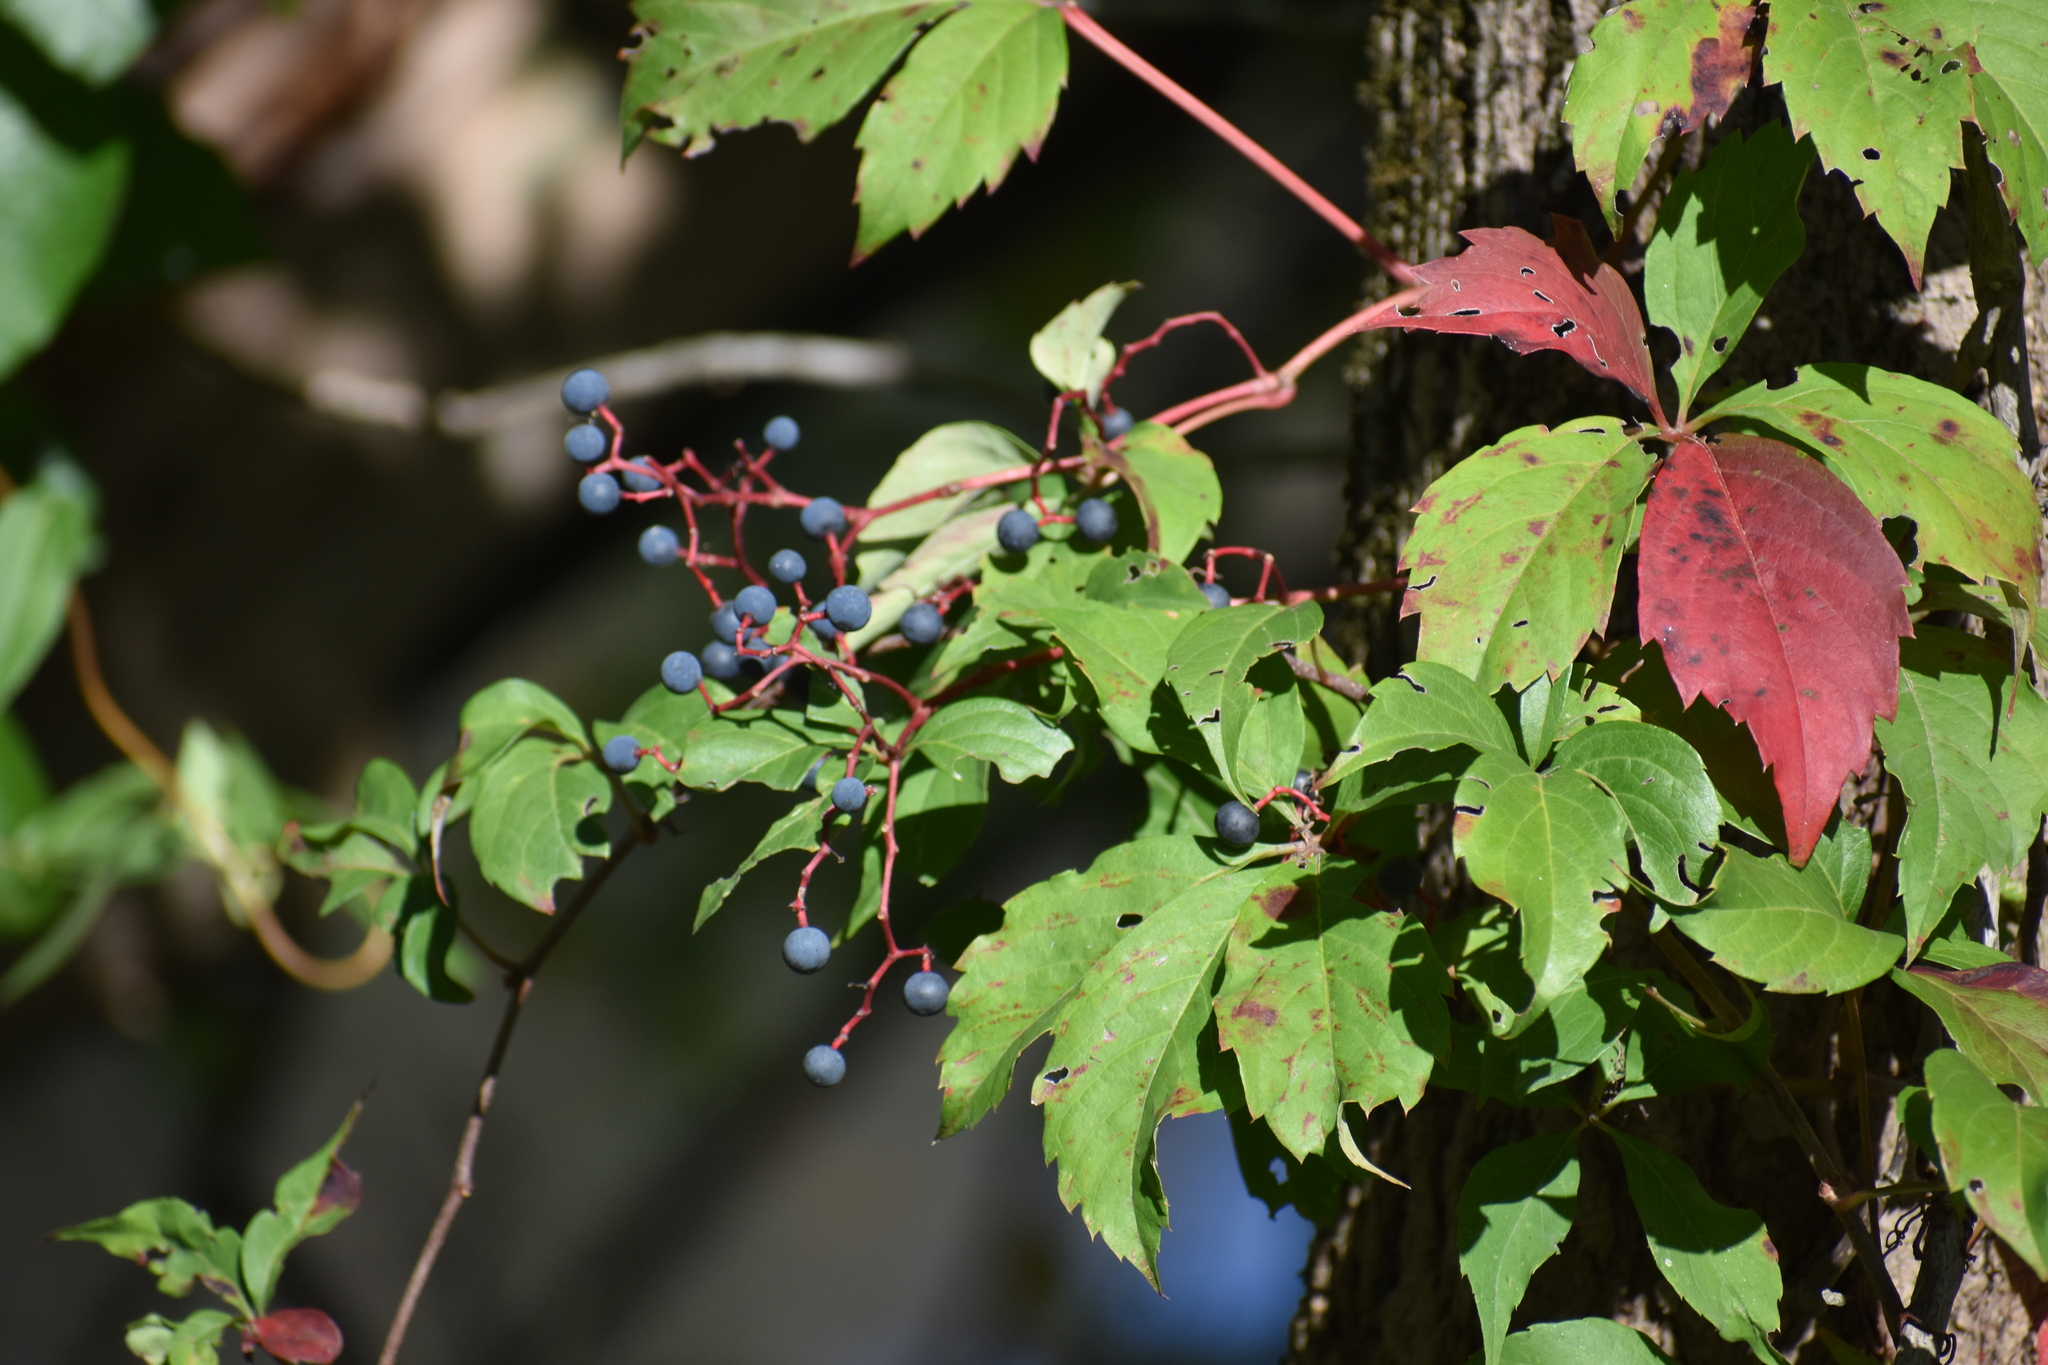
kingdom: Plantae
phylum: Tracheophyta
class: Magnoliopsida
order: Vitales
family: Vitaceae
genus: Parthenocissus
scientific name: Parthenocissus quinquefolia
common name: Virginia-creeper
